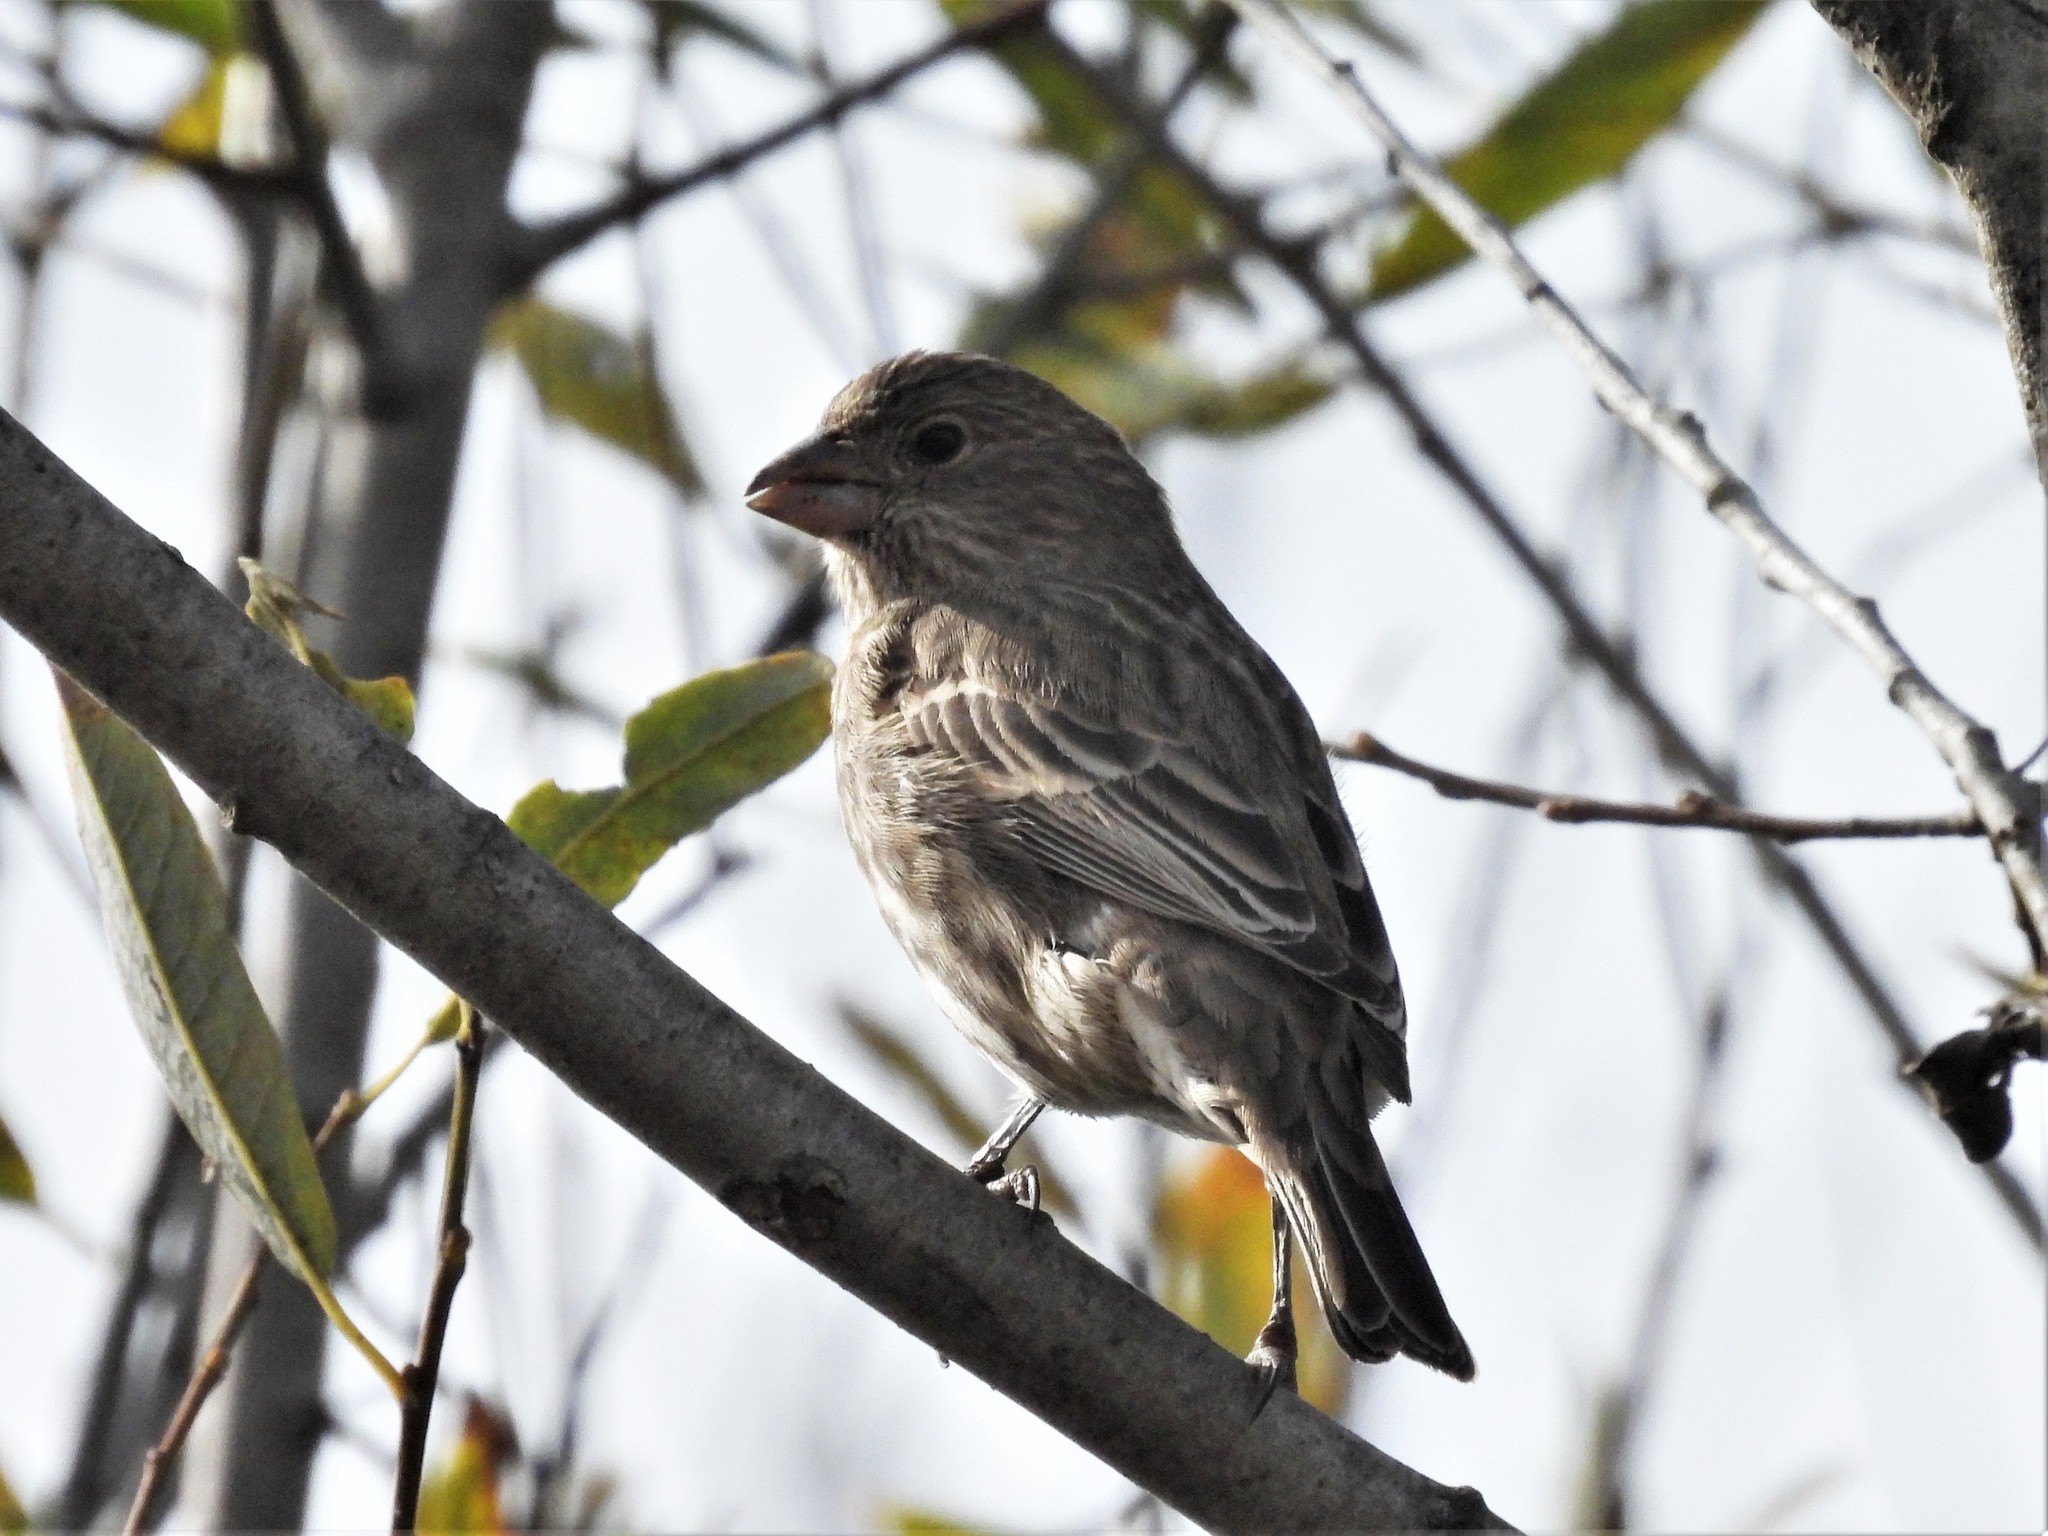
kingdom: Animalia
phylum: Chordata
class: Aves
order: Passeriformes
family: Fringillidae
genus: Haemorhous
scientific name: Haemorhous mexicanus
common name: House finch
